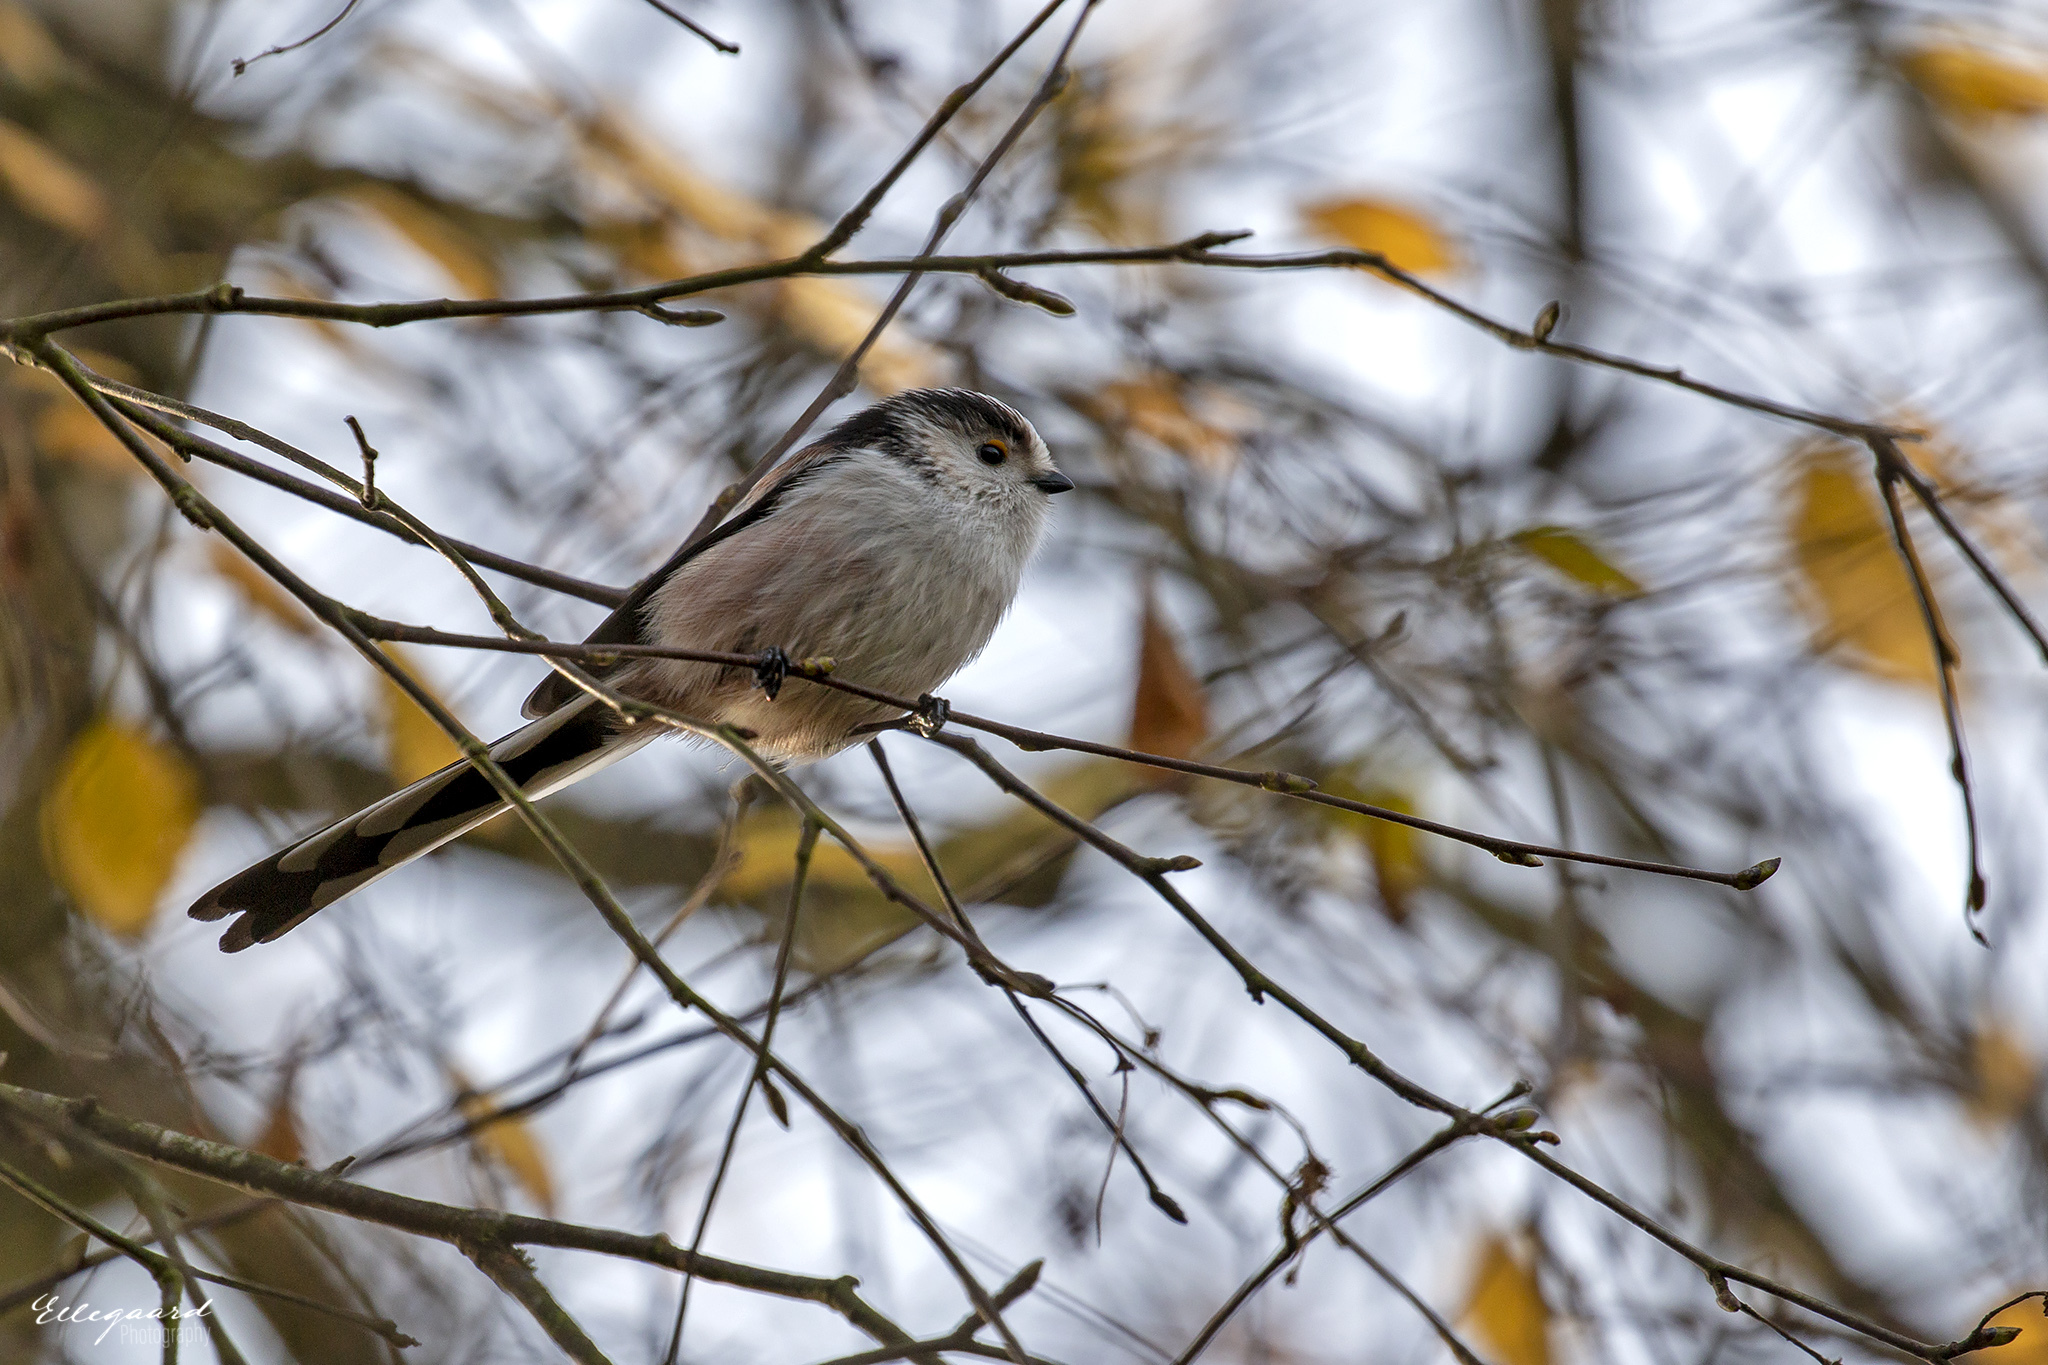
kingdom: Animalia
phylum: Chordata
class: Aves
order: Passeriformes
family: Aegithalidae
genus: Aegithalos
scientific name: Aegithalos caudatus
